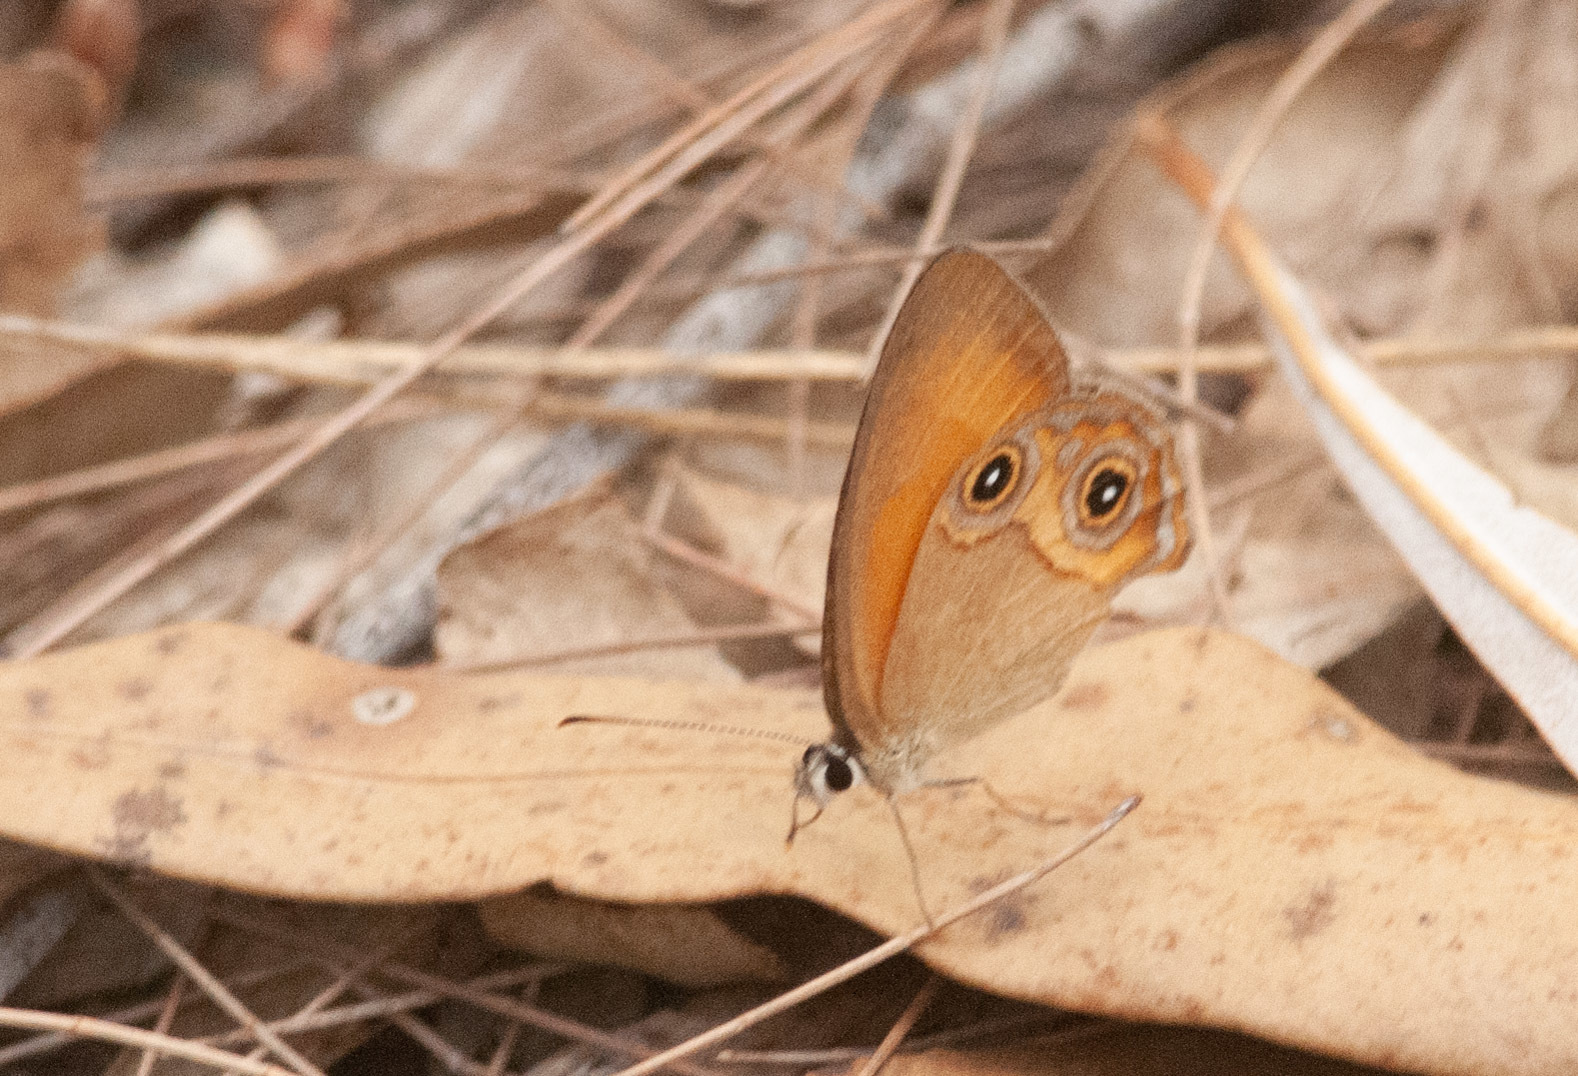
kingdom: Animalia
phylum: Arthropoda
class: Insecta
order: Lepidoptera
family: Nymphalidae
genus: Hypocysta
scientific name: Hypocysta adiante
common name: Orange ringlet
